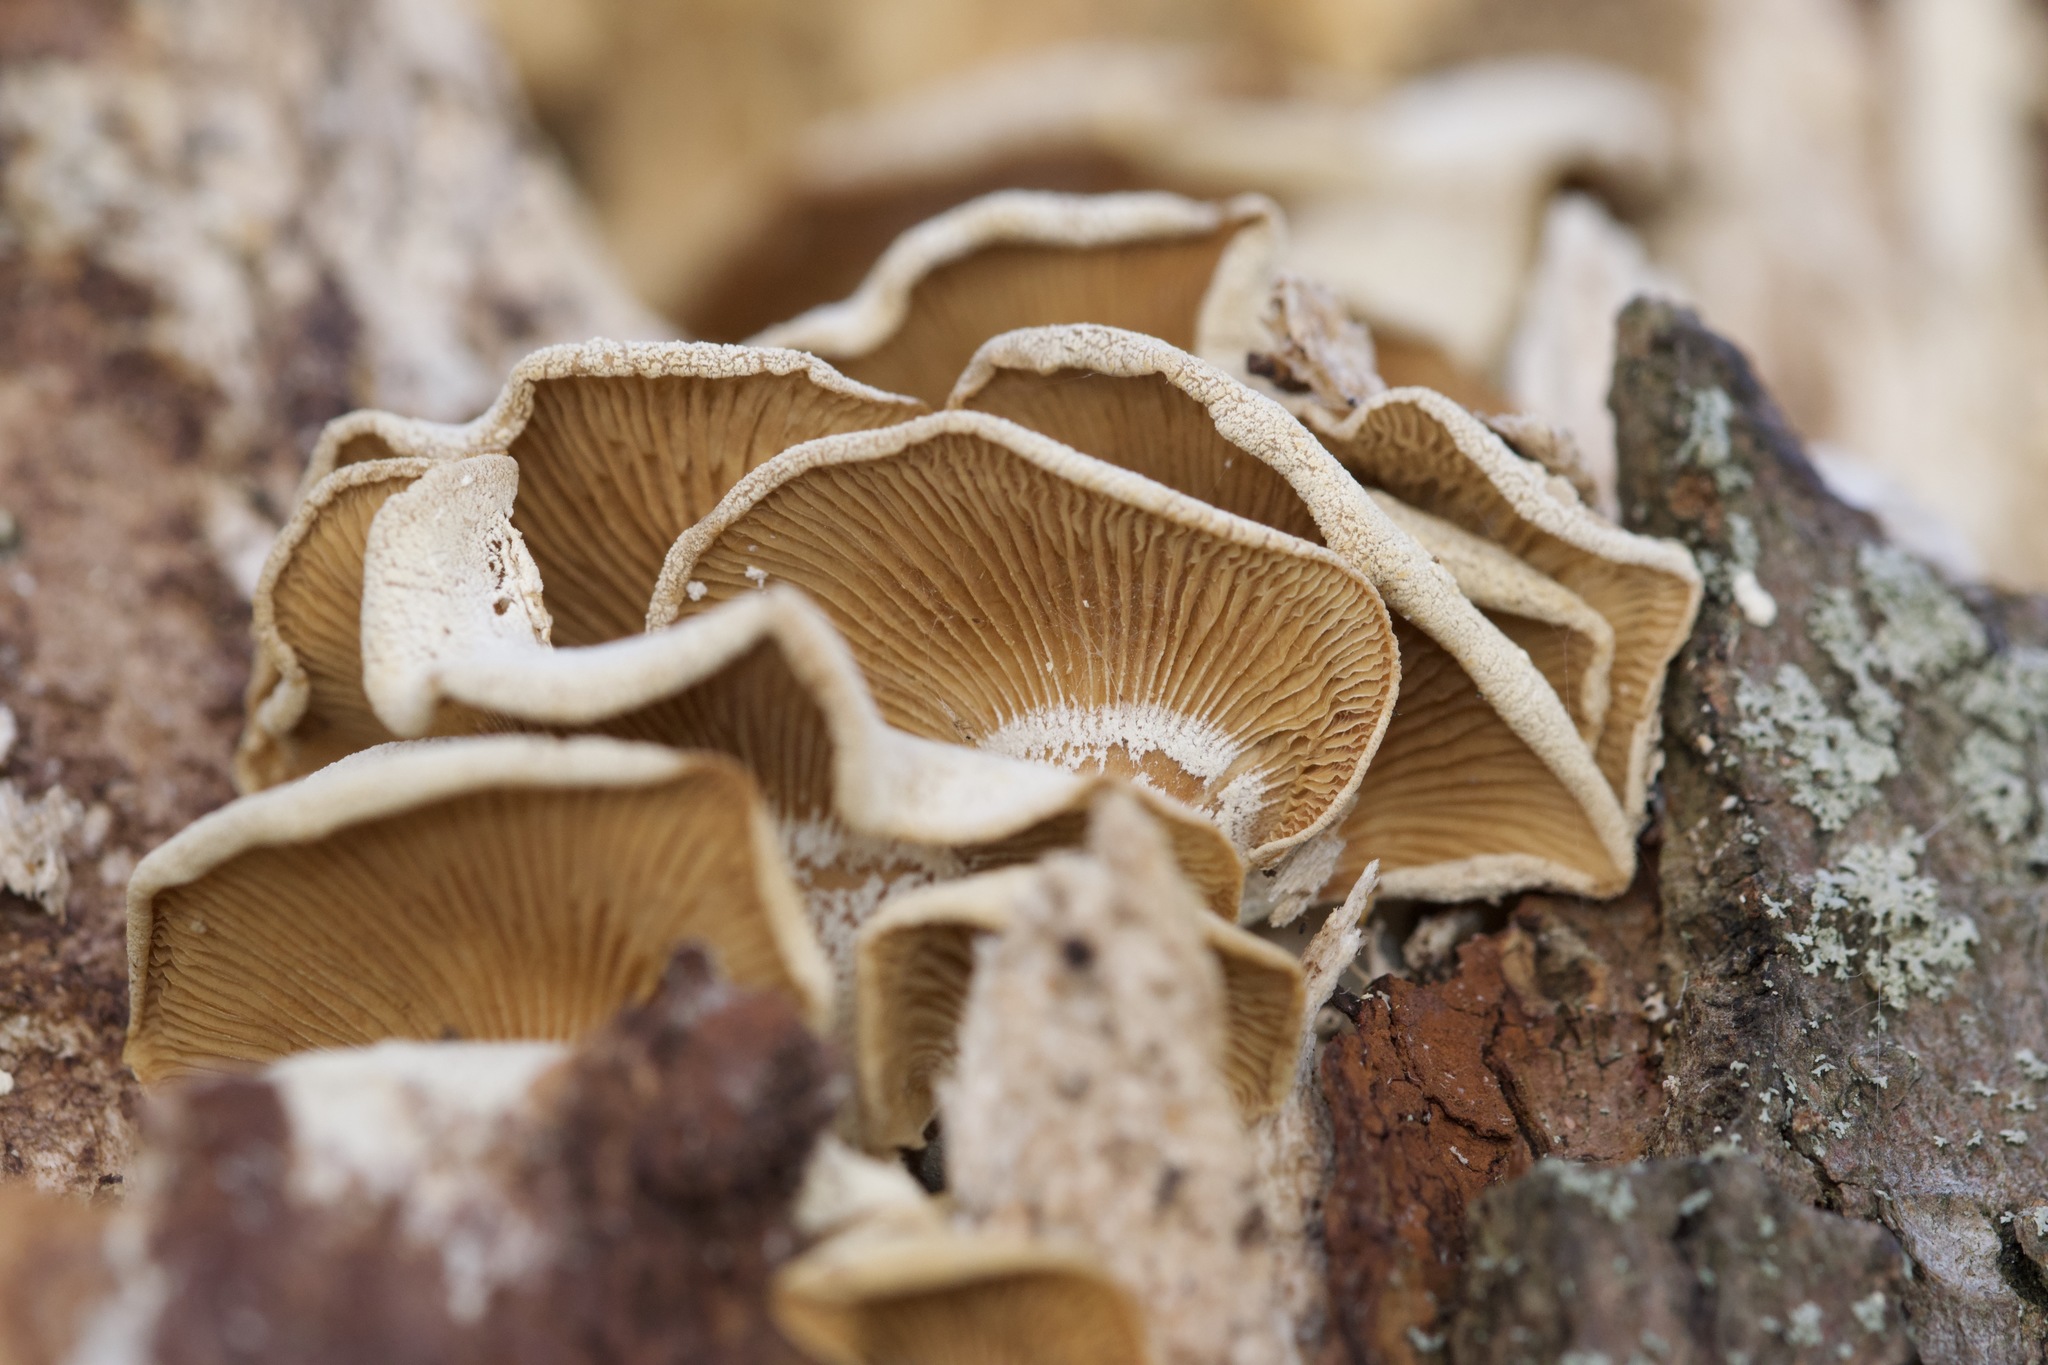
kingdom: Fungi
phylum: Basidiomycota
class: Agaricomycetes
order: Agaricales
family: Mycenaceae
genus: Panellus
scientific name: Panellus stipticus
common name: Bitter oysterling
